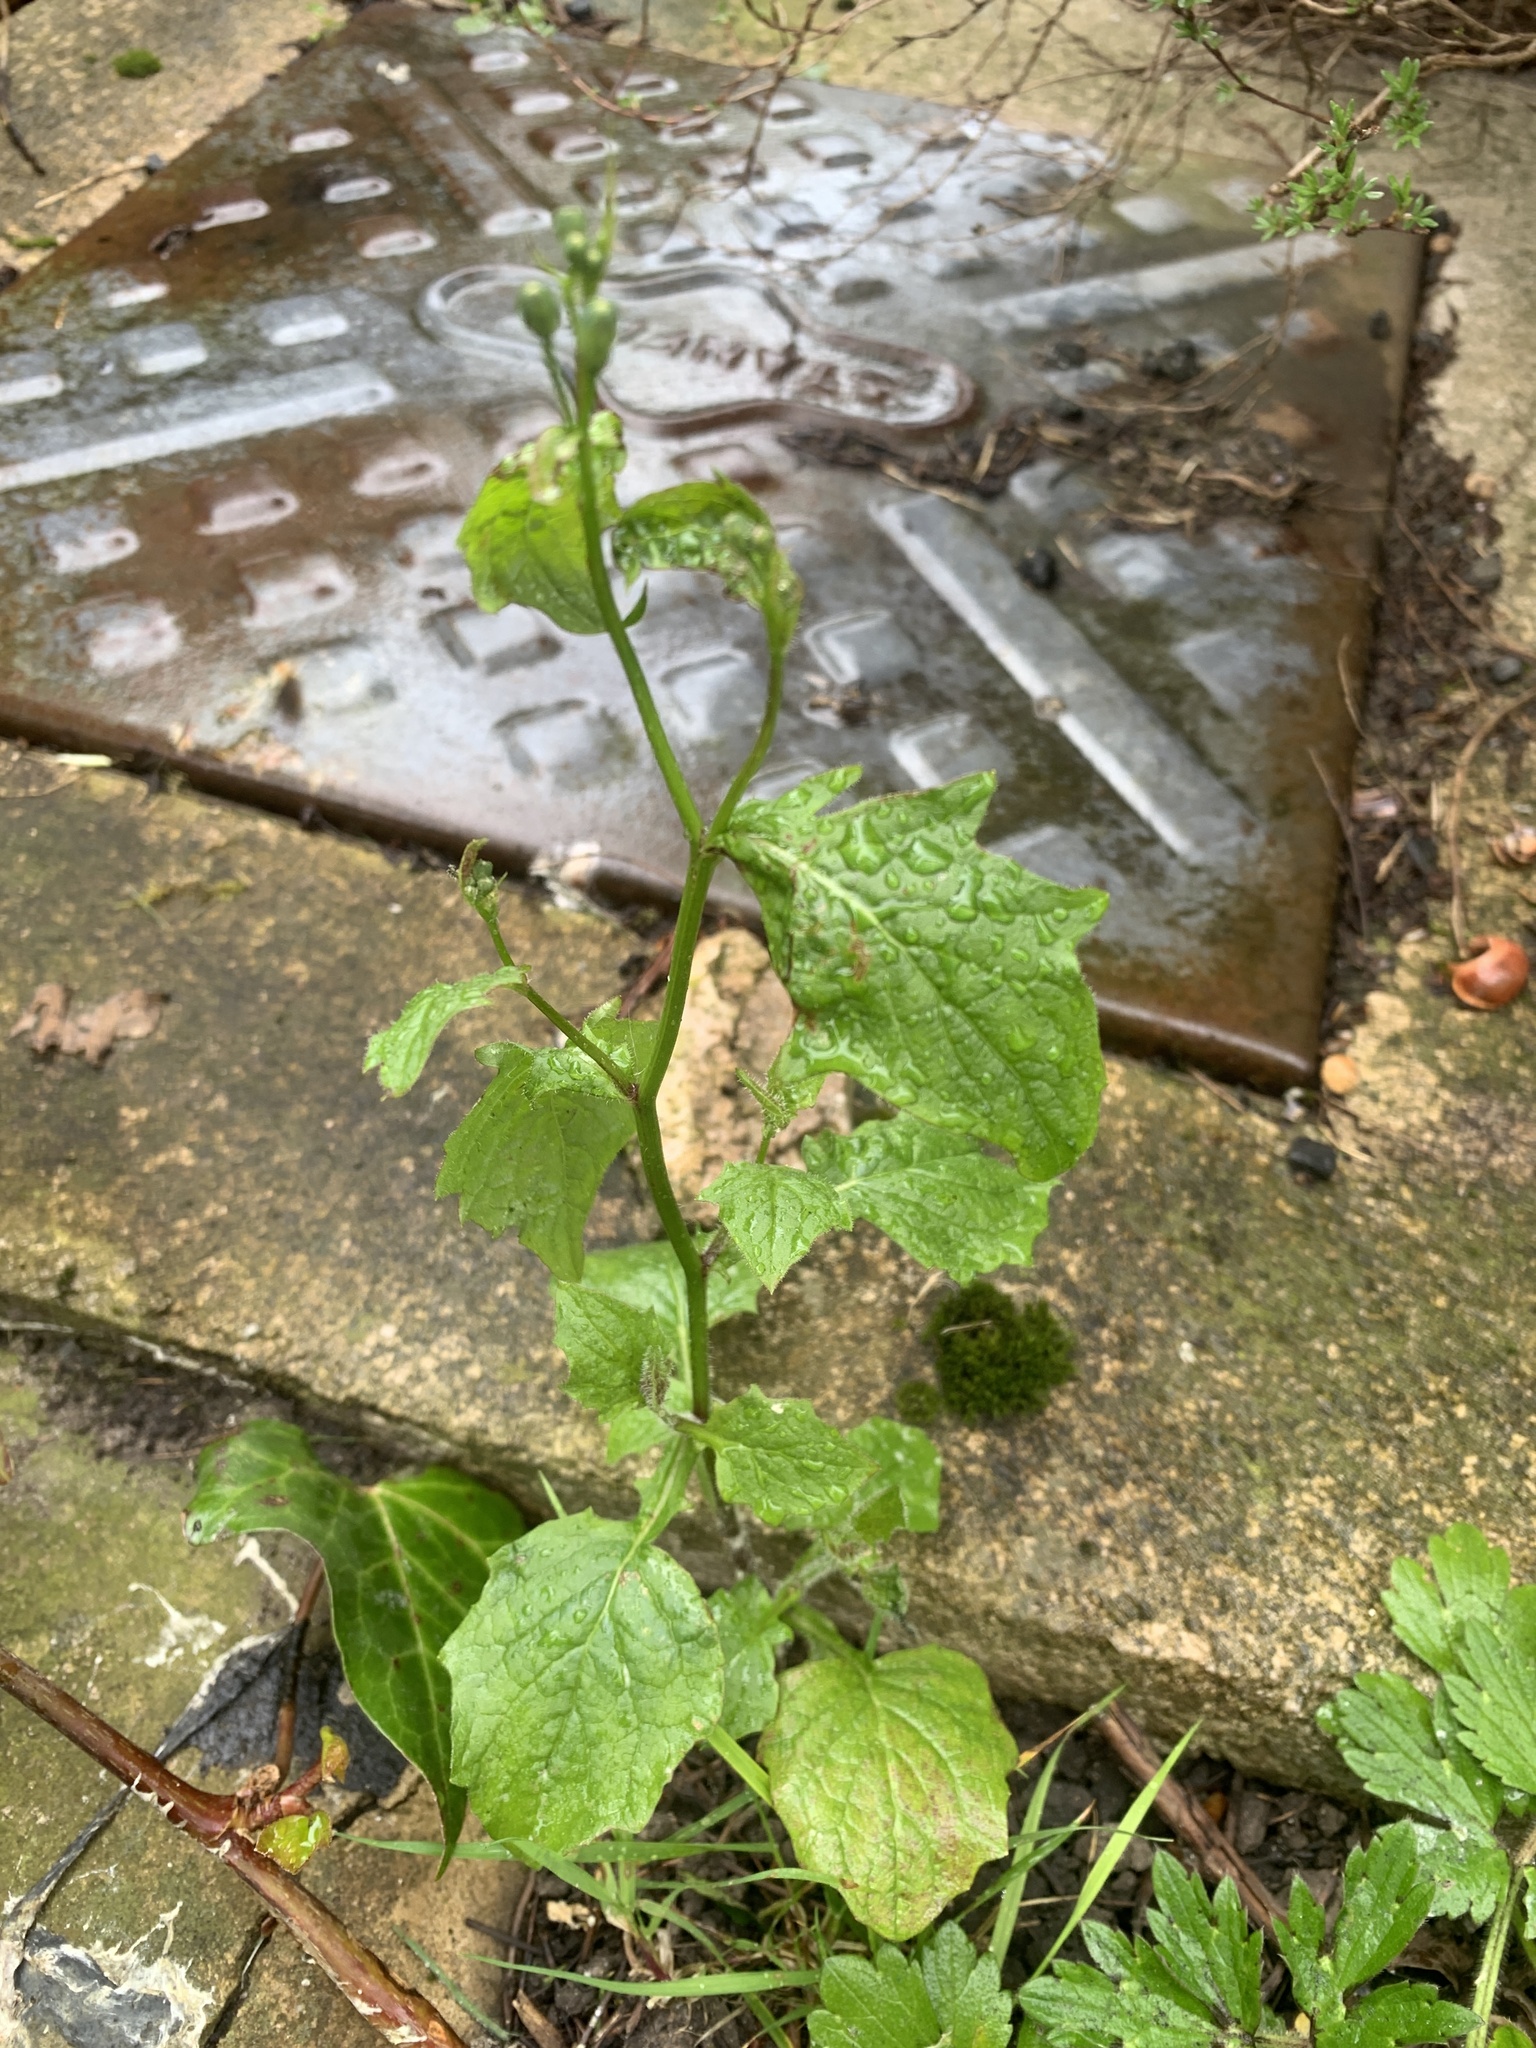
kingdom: Plantae
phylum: Tracheophyta
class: Magnoliopsida
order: Asterales
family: Asteraceae
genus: Lapsana
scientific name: Lapsana communis
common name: Nipplewort
